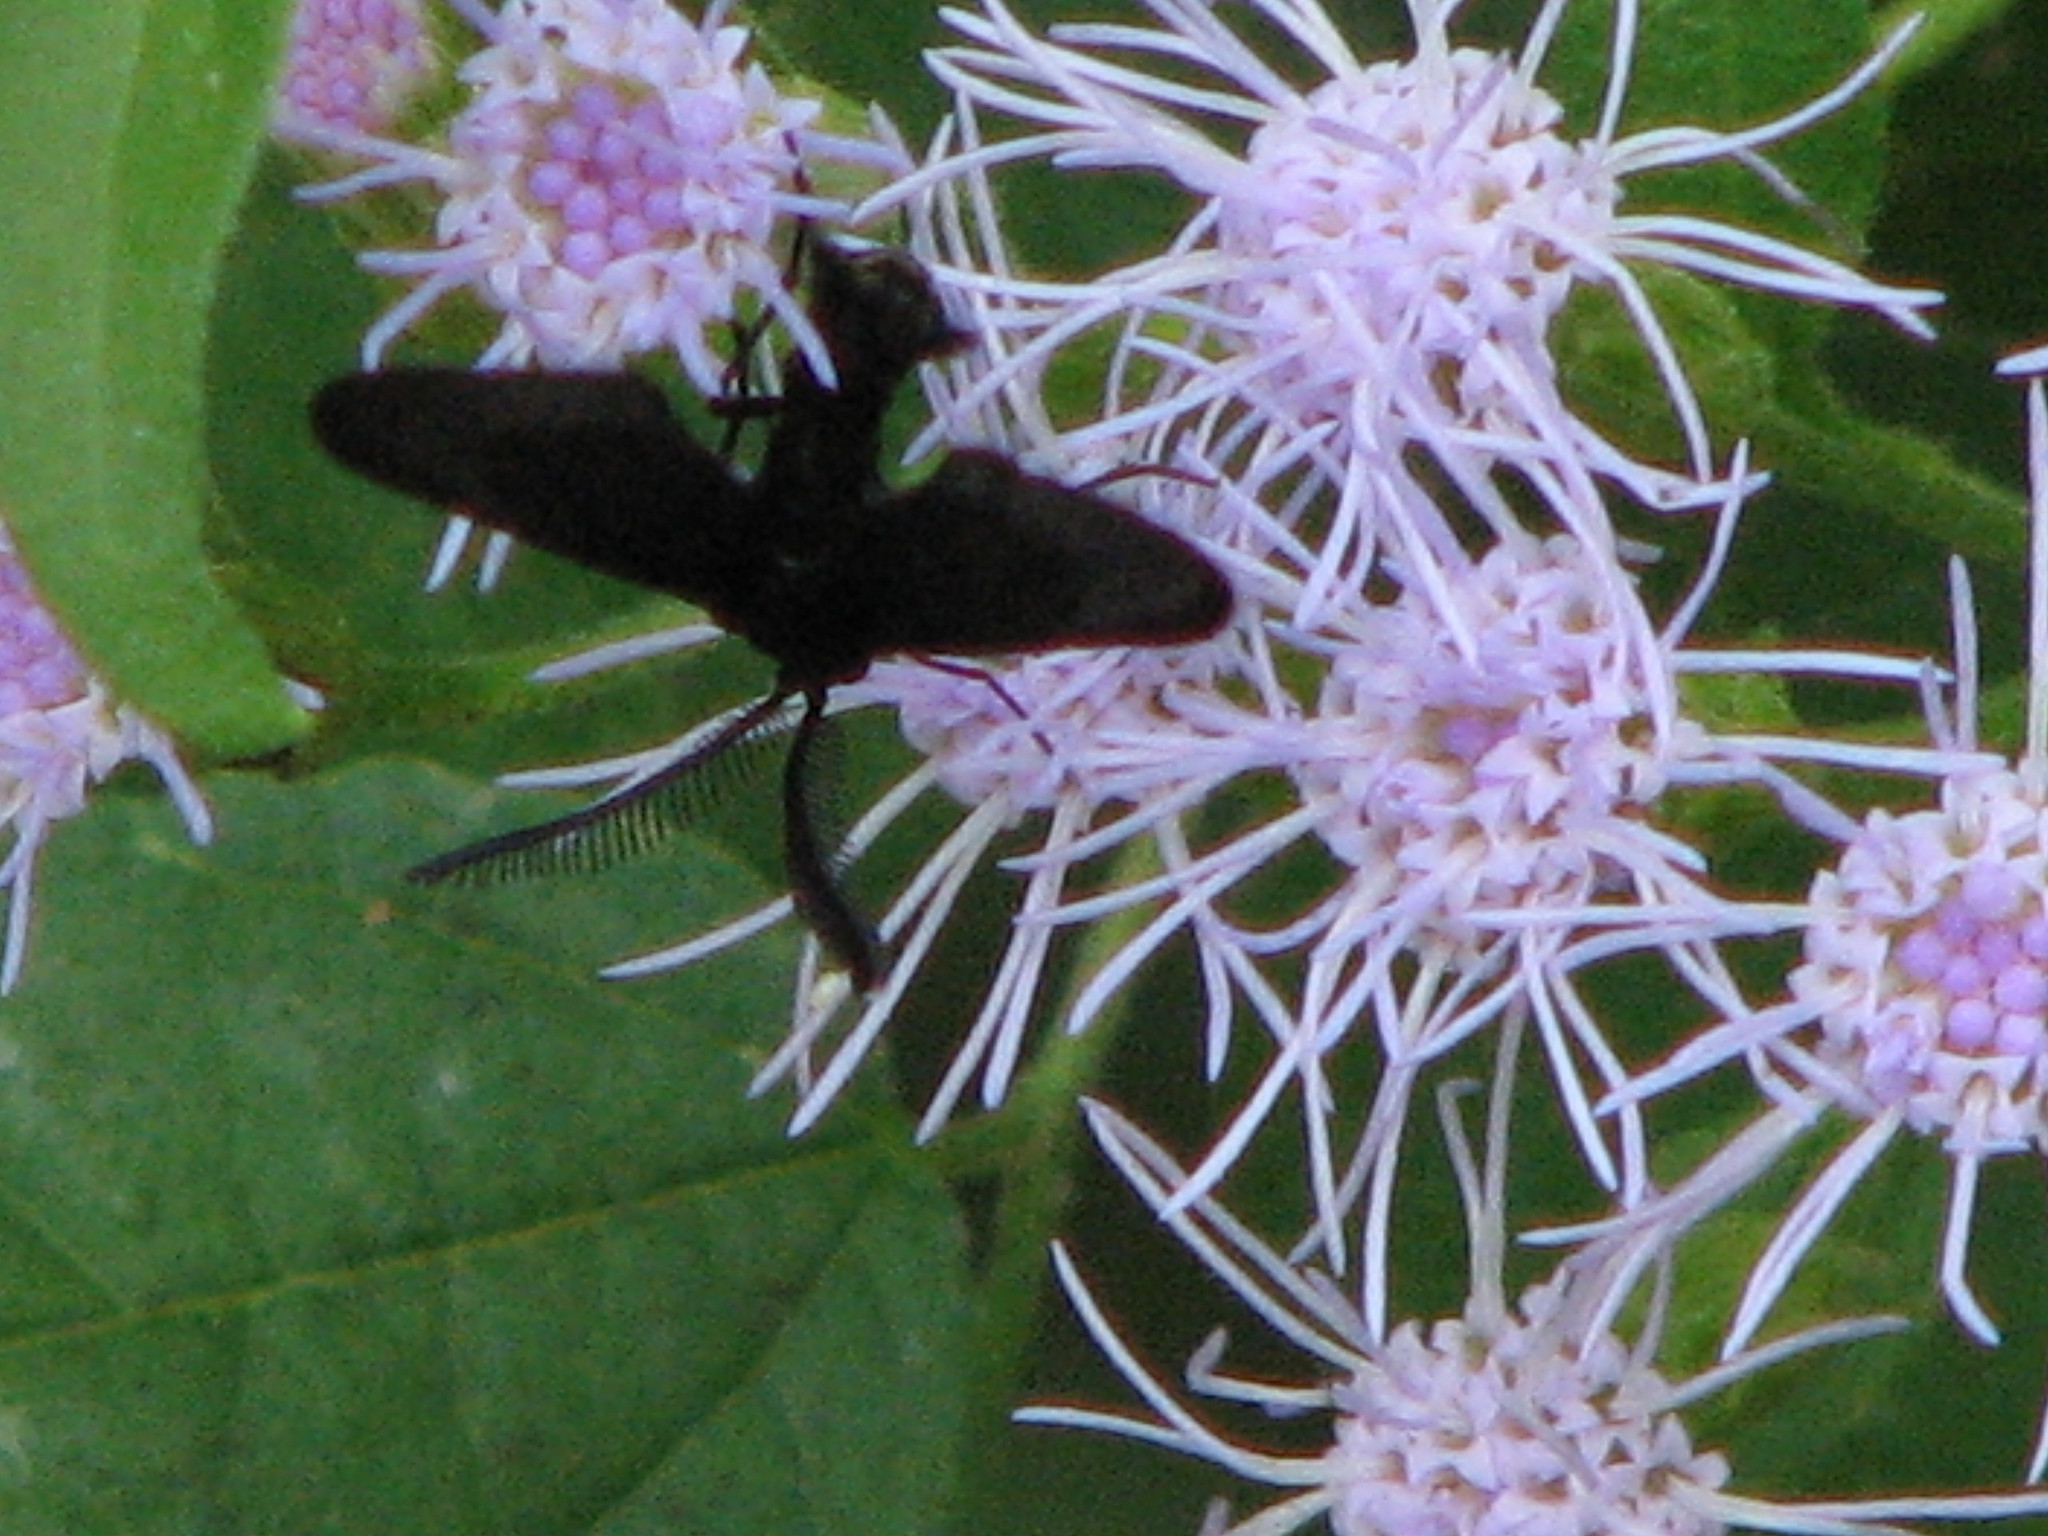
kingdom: Animalia
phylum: Arthropoda
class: Insecta
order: Lepidoptera
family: Zygaenidae
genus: Harrisina
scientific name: Harrisina coracina
